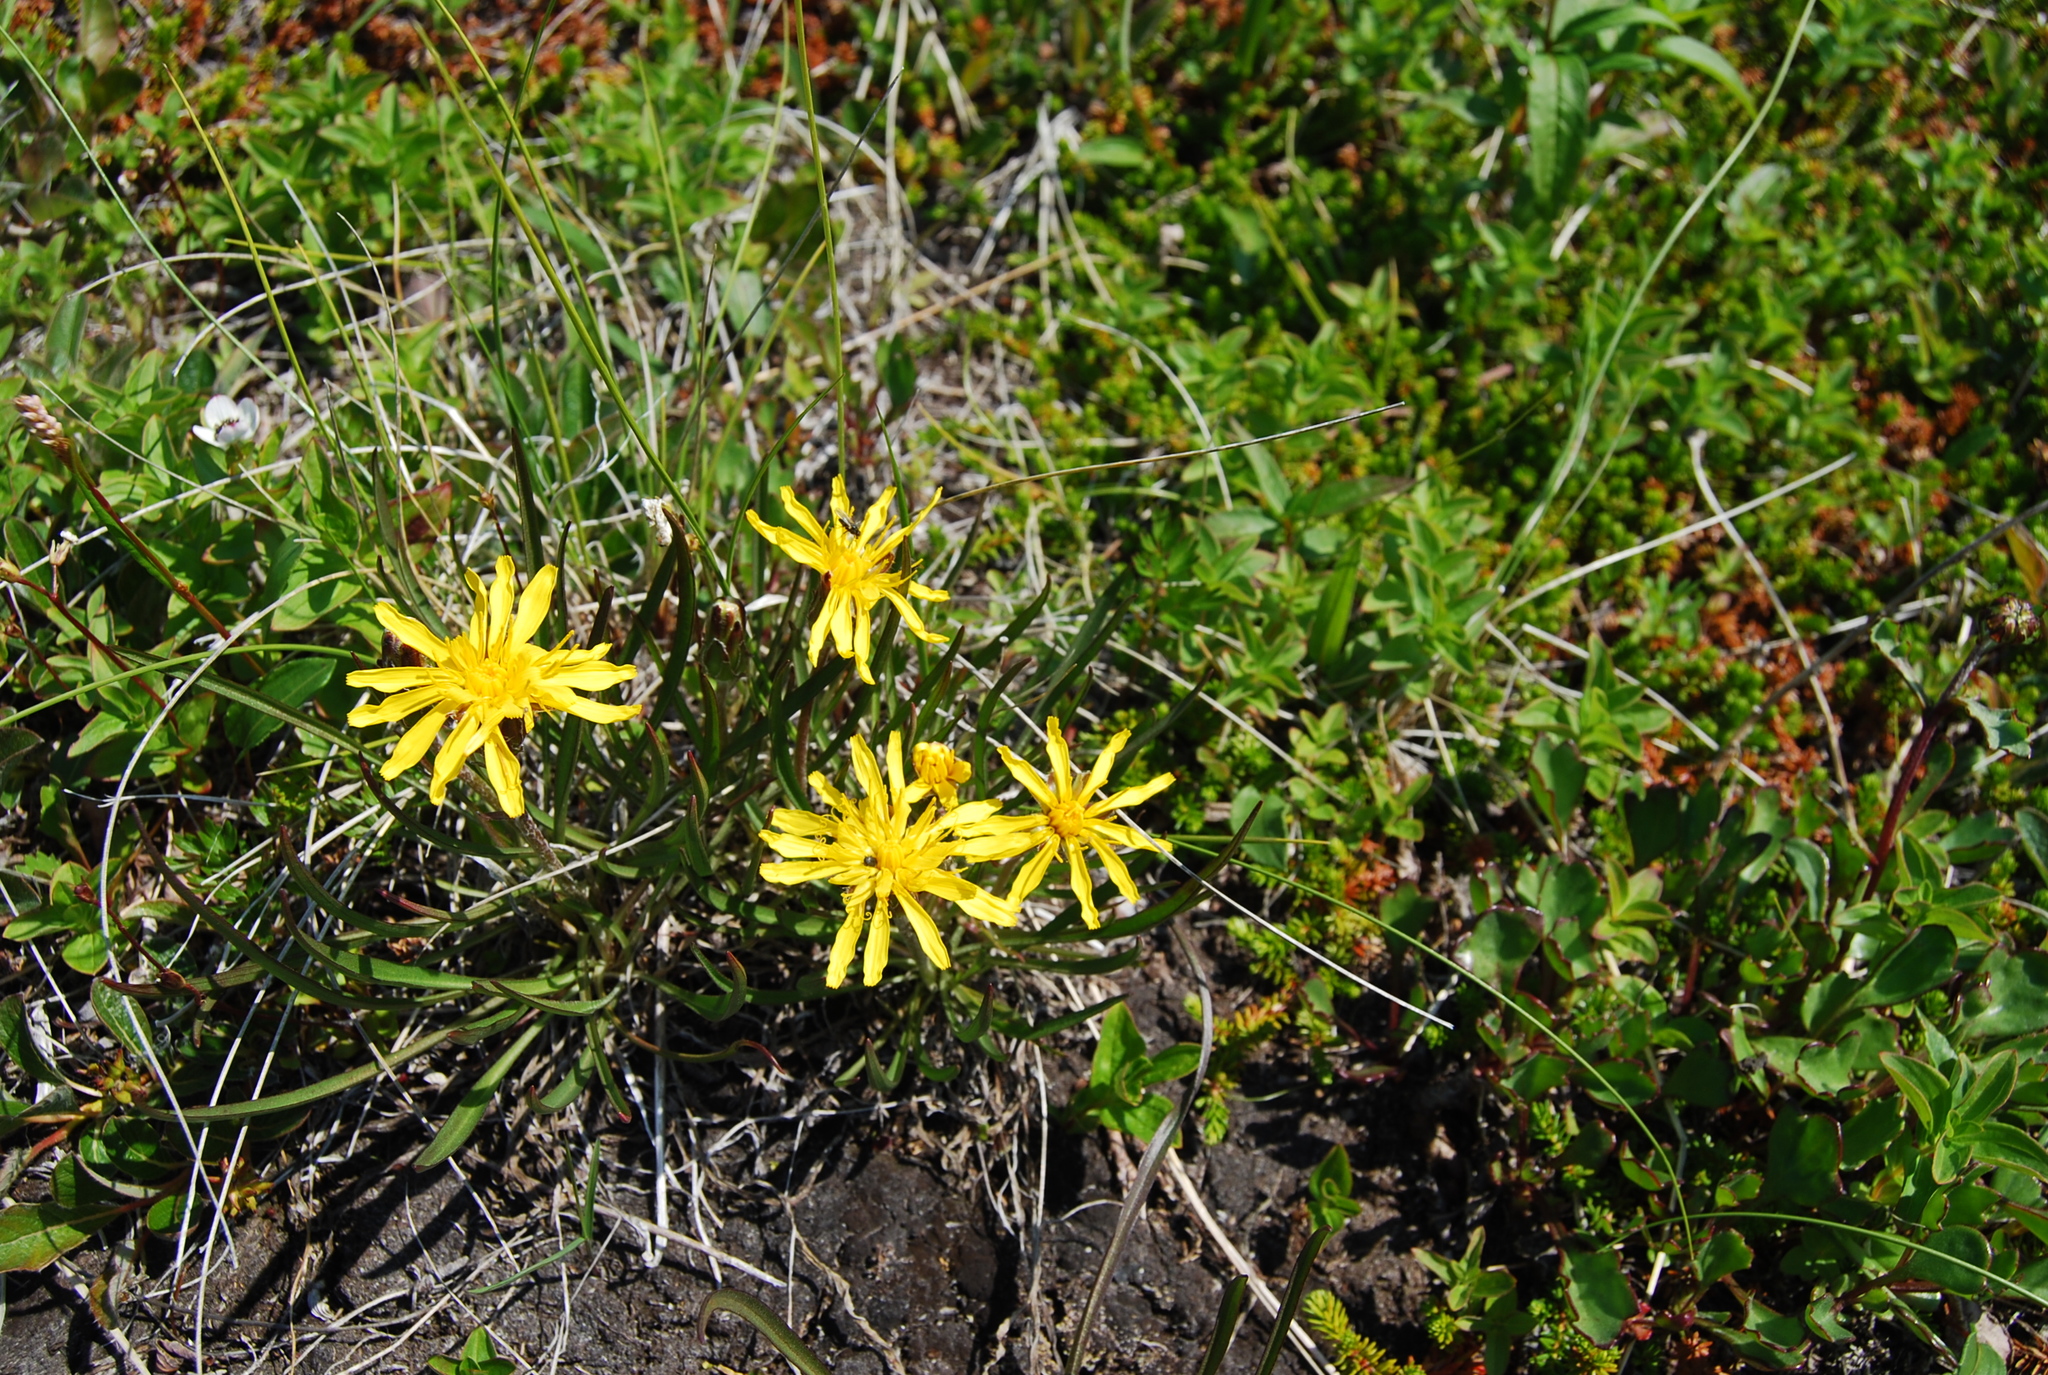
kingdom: Plantae
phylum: Tracheophyta
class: Magnoliopsida
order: Asterales
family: Asteraceae
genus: Scorzonera
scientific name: Scorzonera radiata
